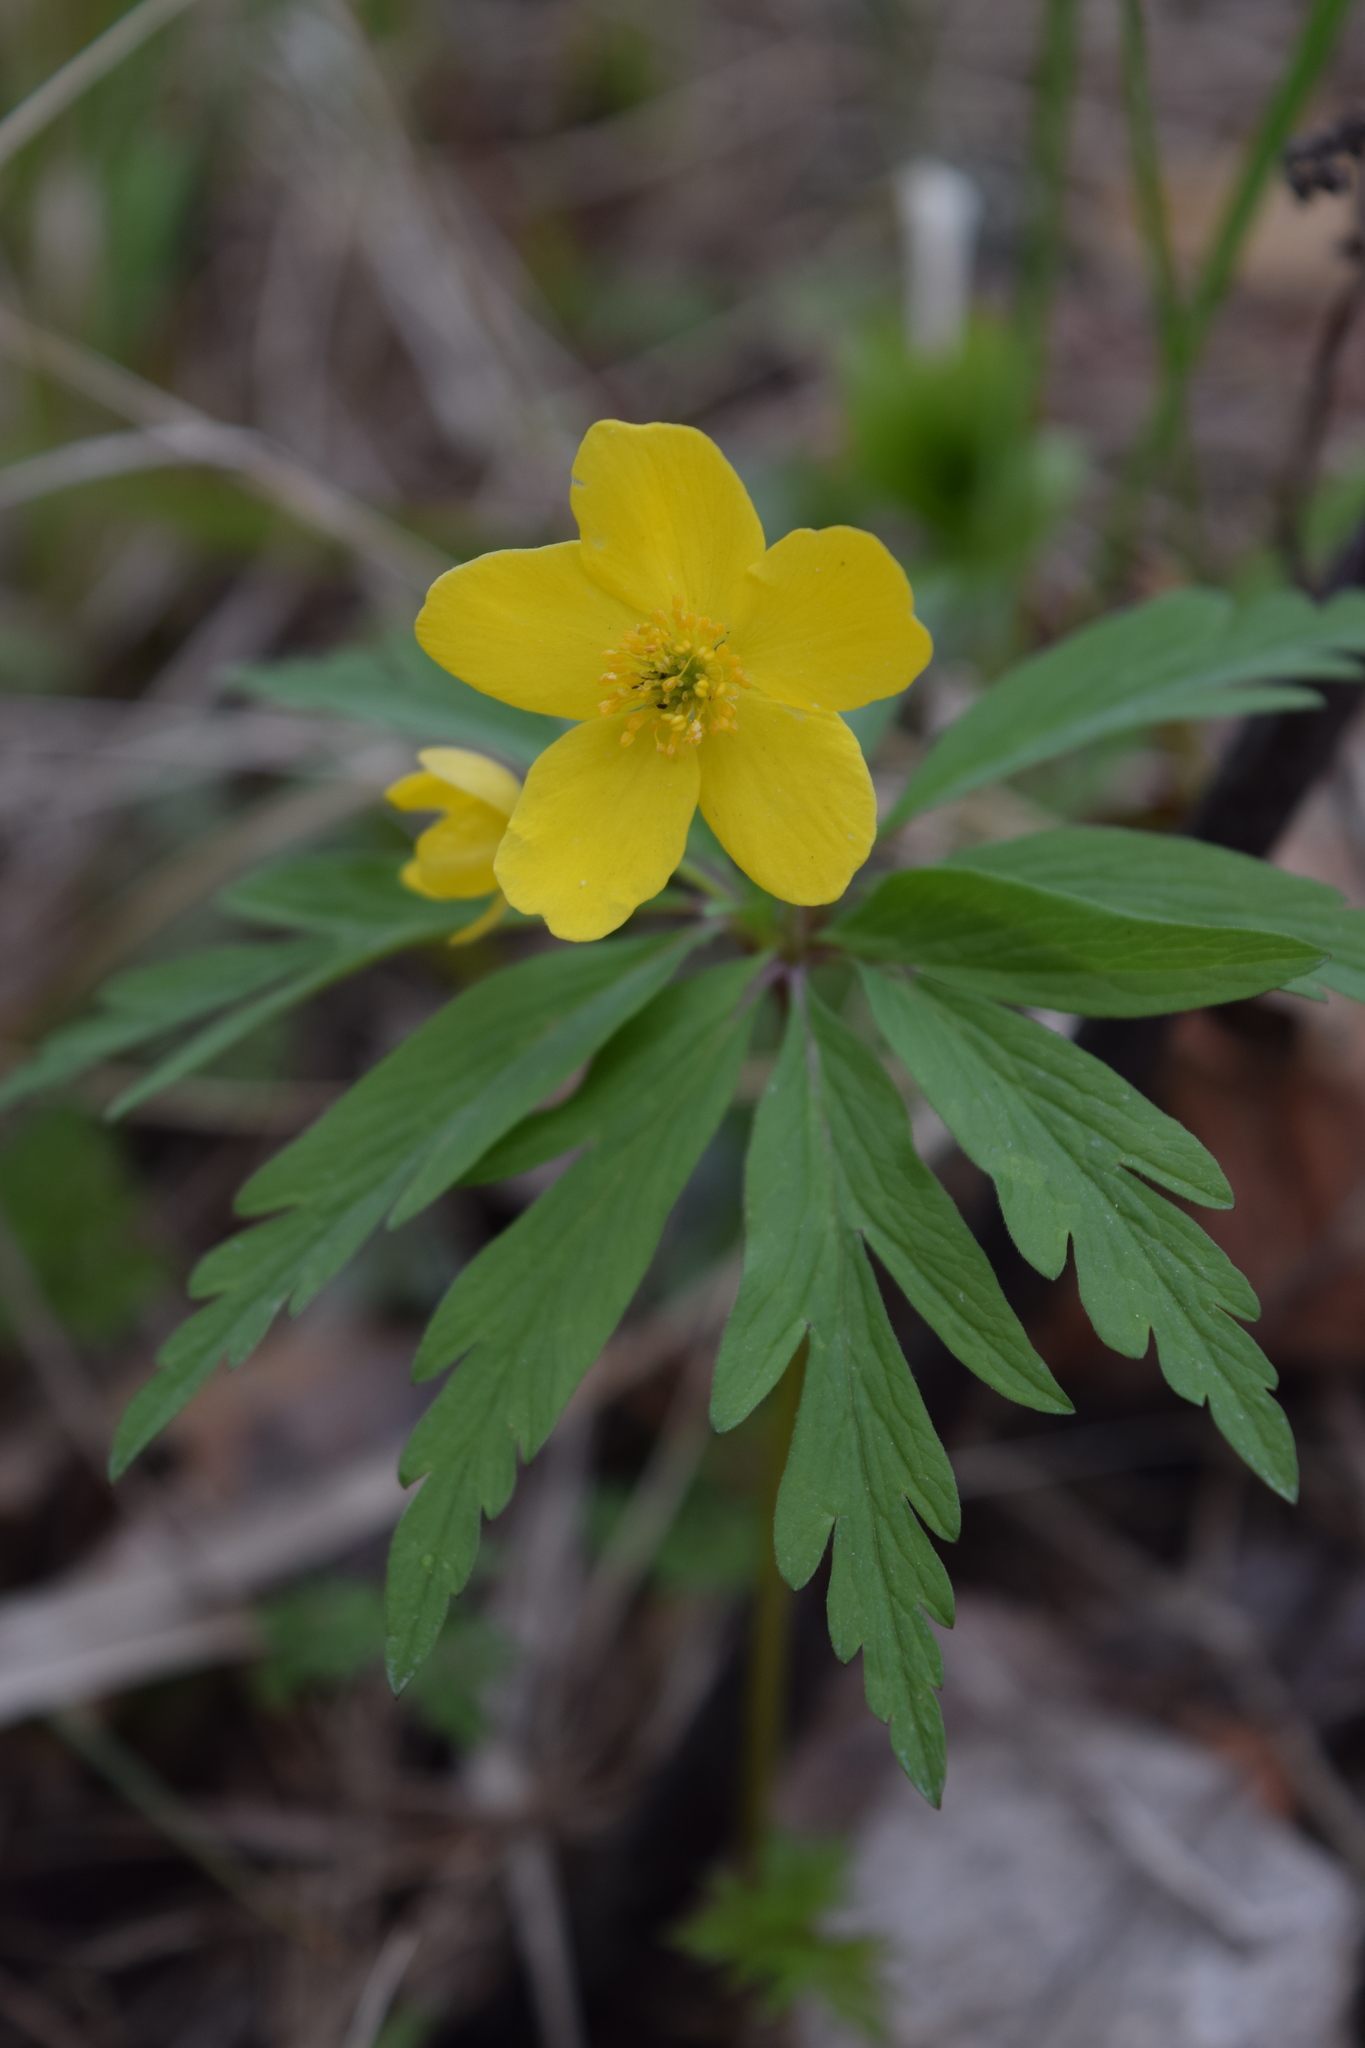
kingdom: Plantae
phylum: Tracheophyta
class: Magnoliopsida
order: Ranunculales
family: Ranunculaceae
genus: Anemone
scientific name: Anemone ranunculoides
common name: Yellow anemone
